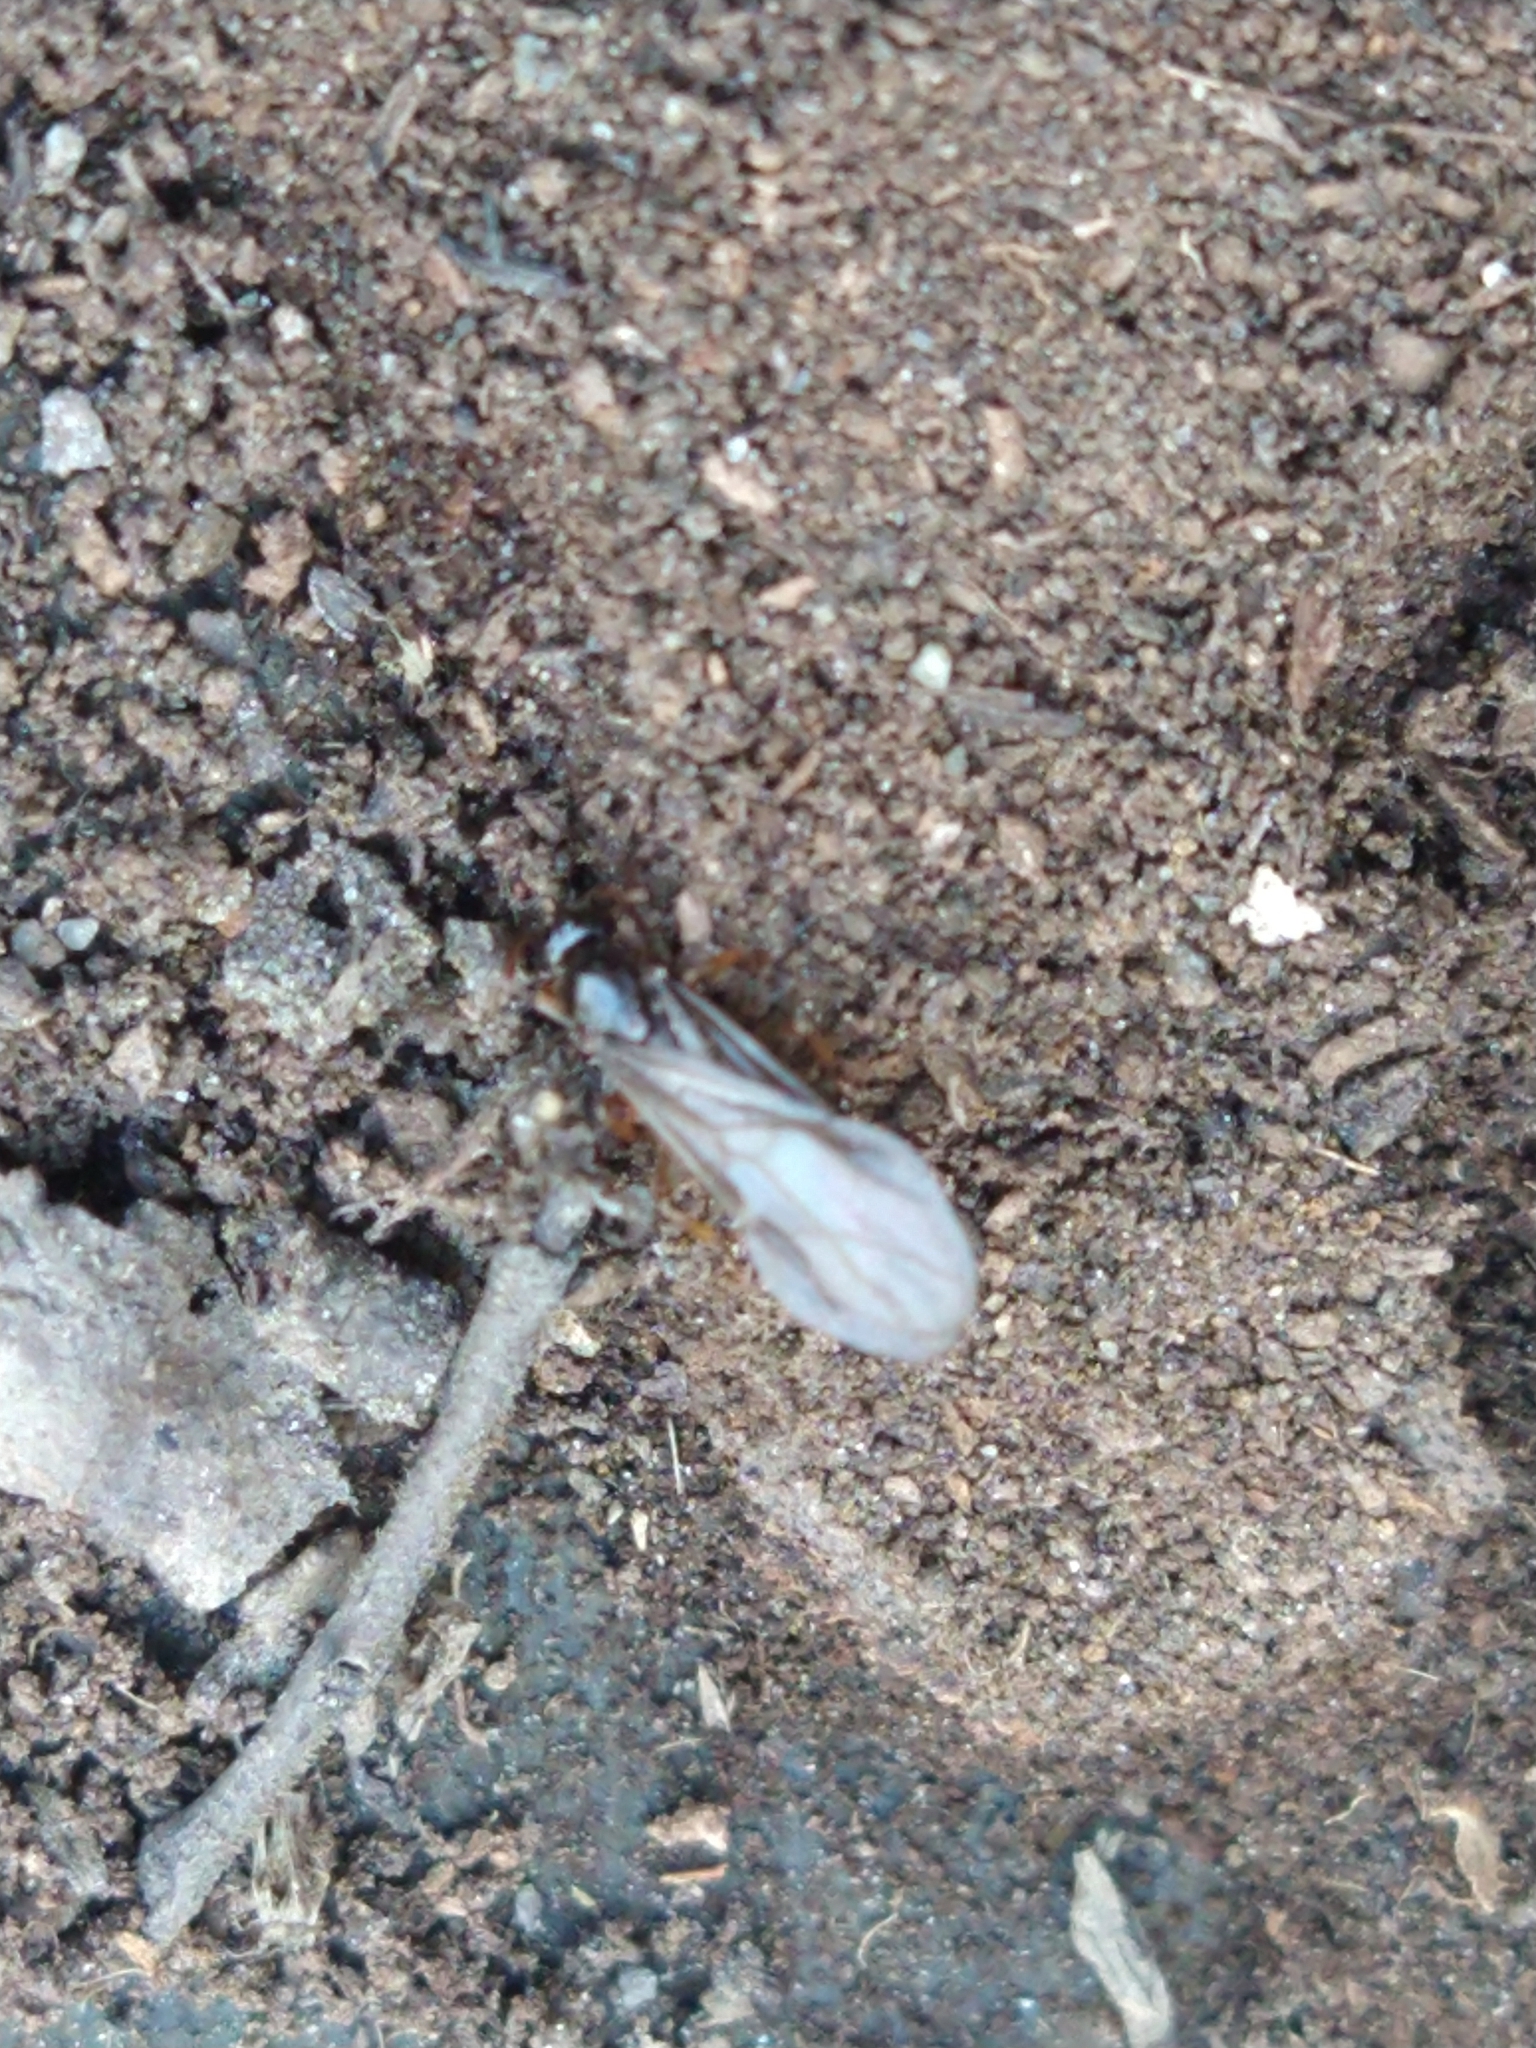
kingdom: Animalia
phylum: Arthropoda
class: Insecta
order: Hymenoptera
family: Formicidae
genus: Lasiophanes
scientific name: Lasiophanes
